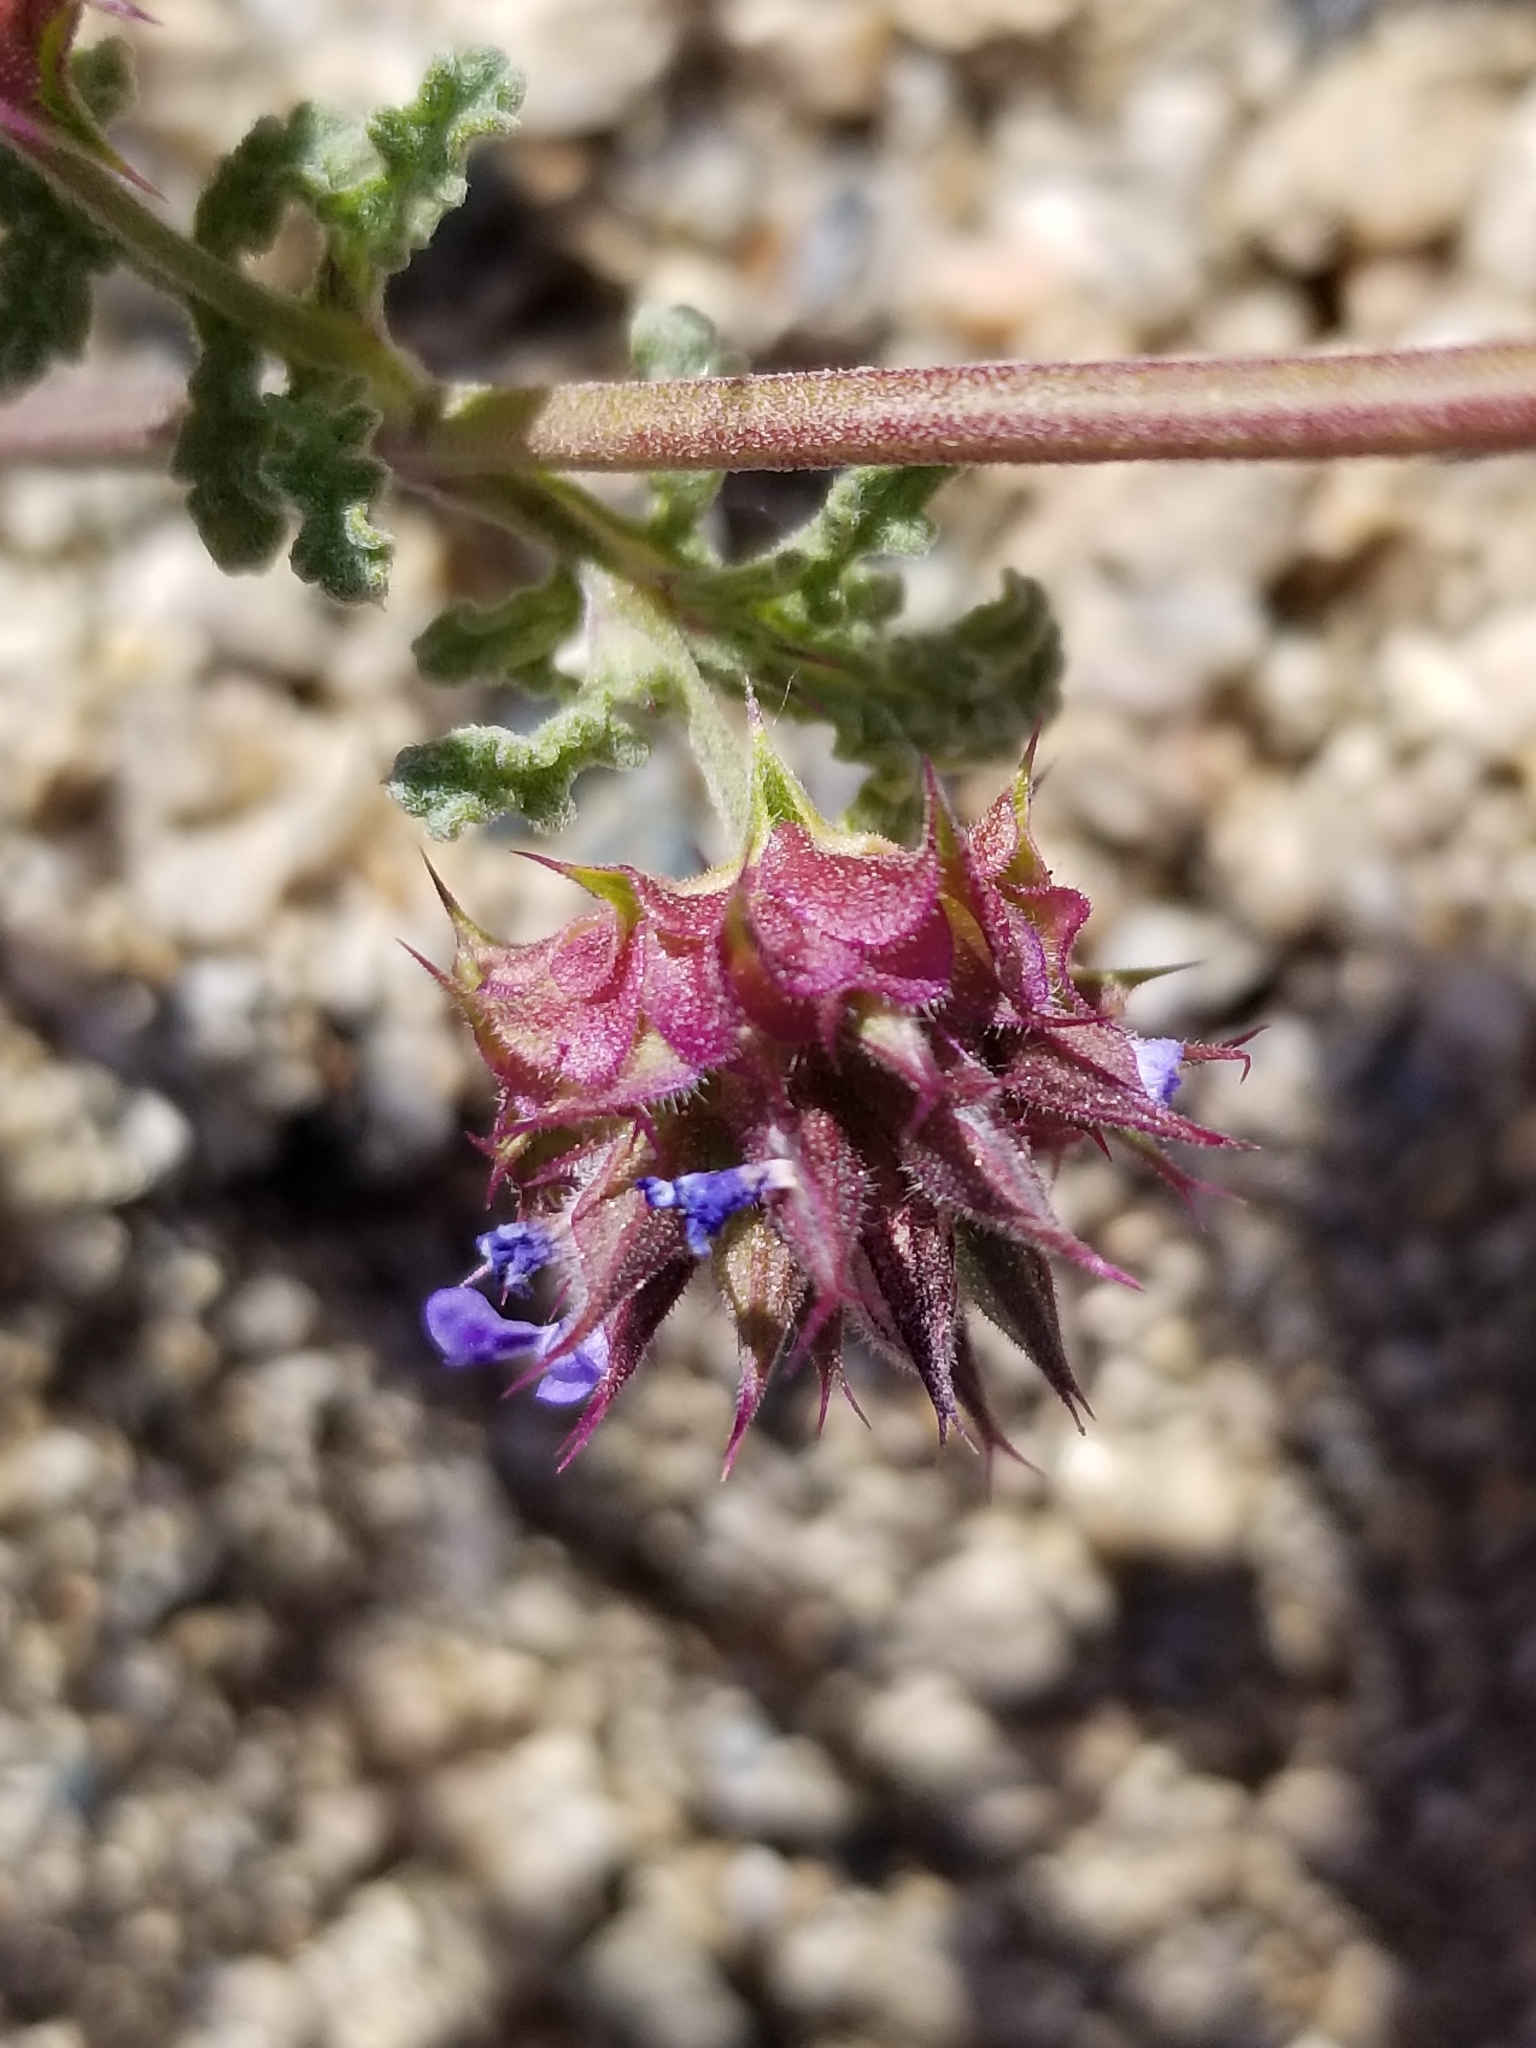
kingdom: Plantae
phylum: Tracheophyta
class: Magnoliopsida
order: Lamiales
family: Lamiaceae
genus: Salvia
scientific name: Salvia columbariae
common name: Chia
